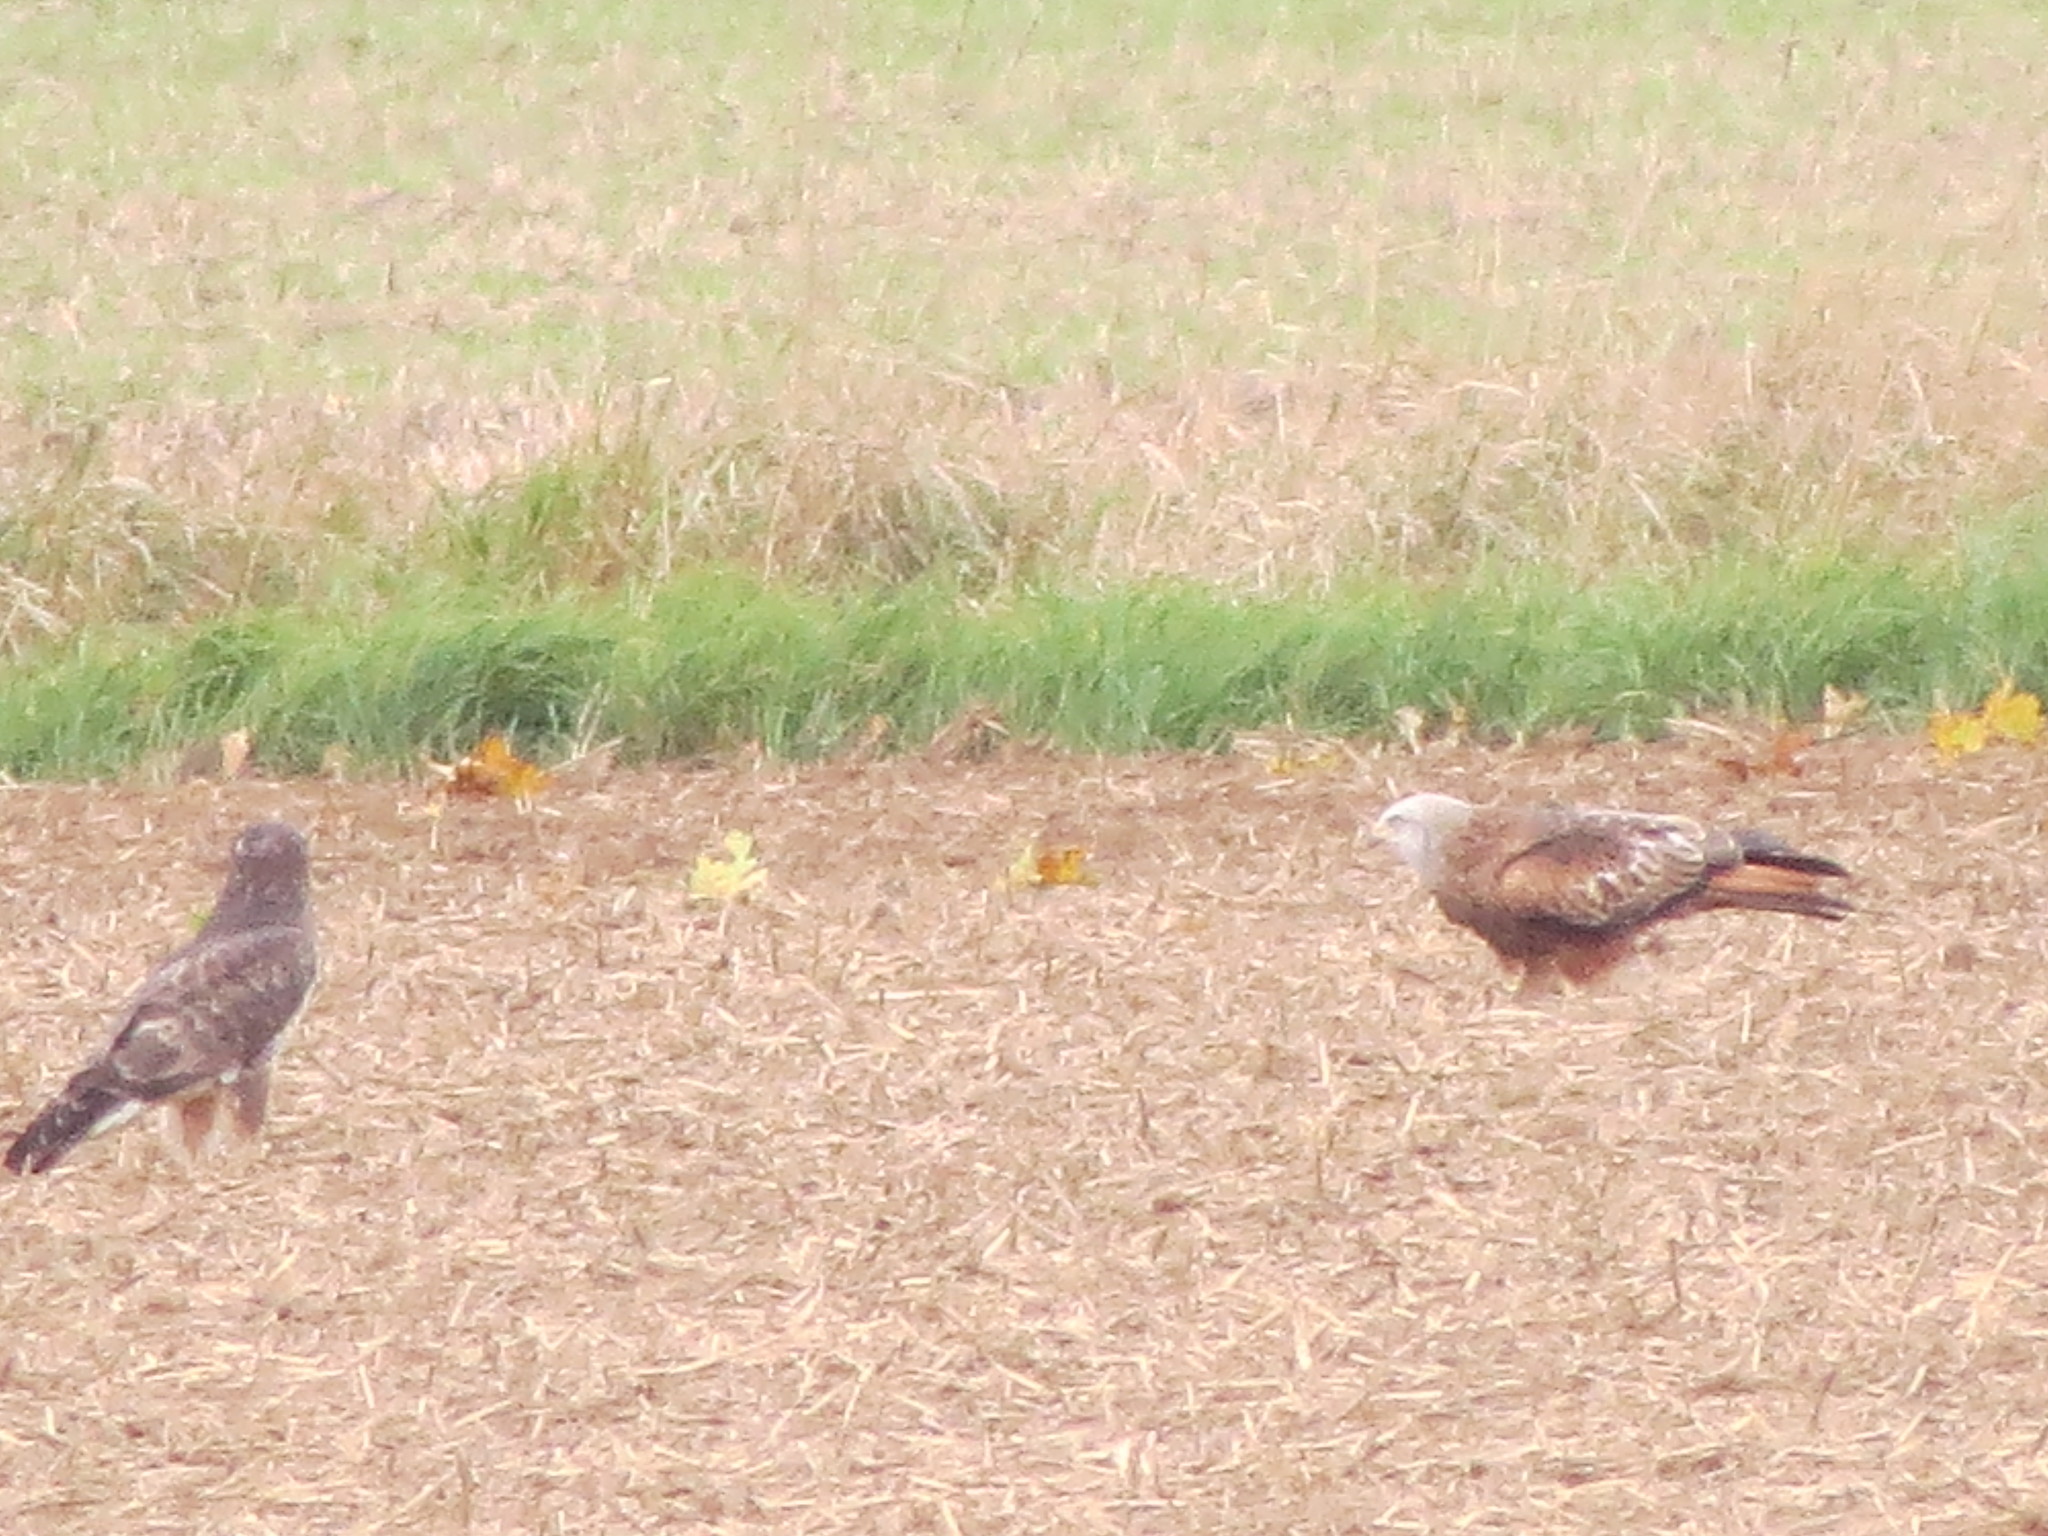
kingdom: Animalia
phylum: Chordata
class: Aves
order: Accipitriformes
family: Accipitridae
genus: Milvus
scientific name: Milvus milvus
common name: Red kite
